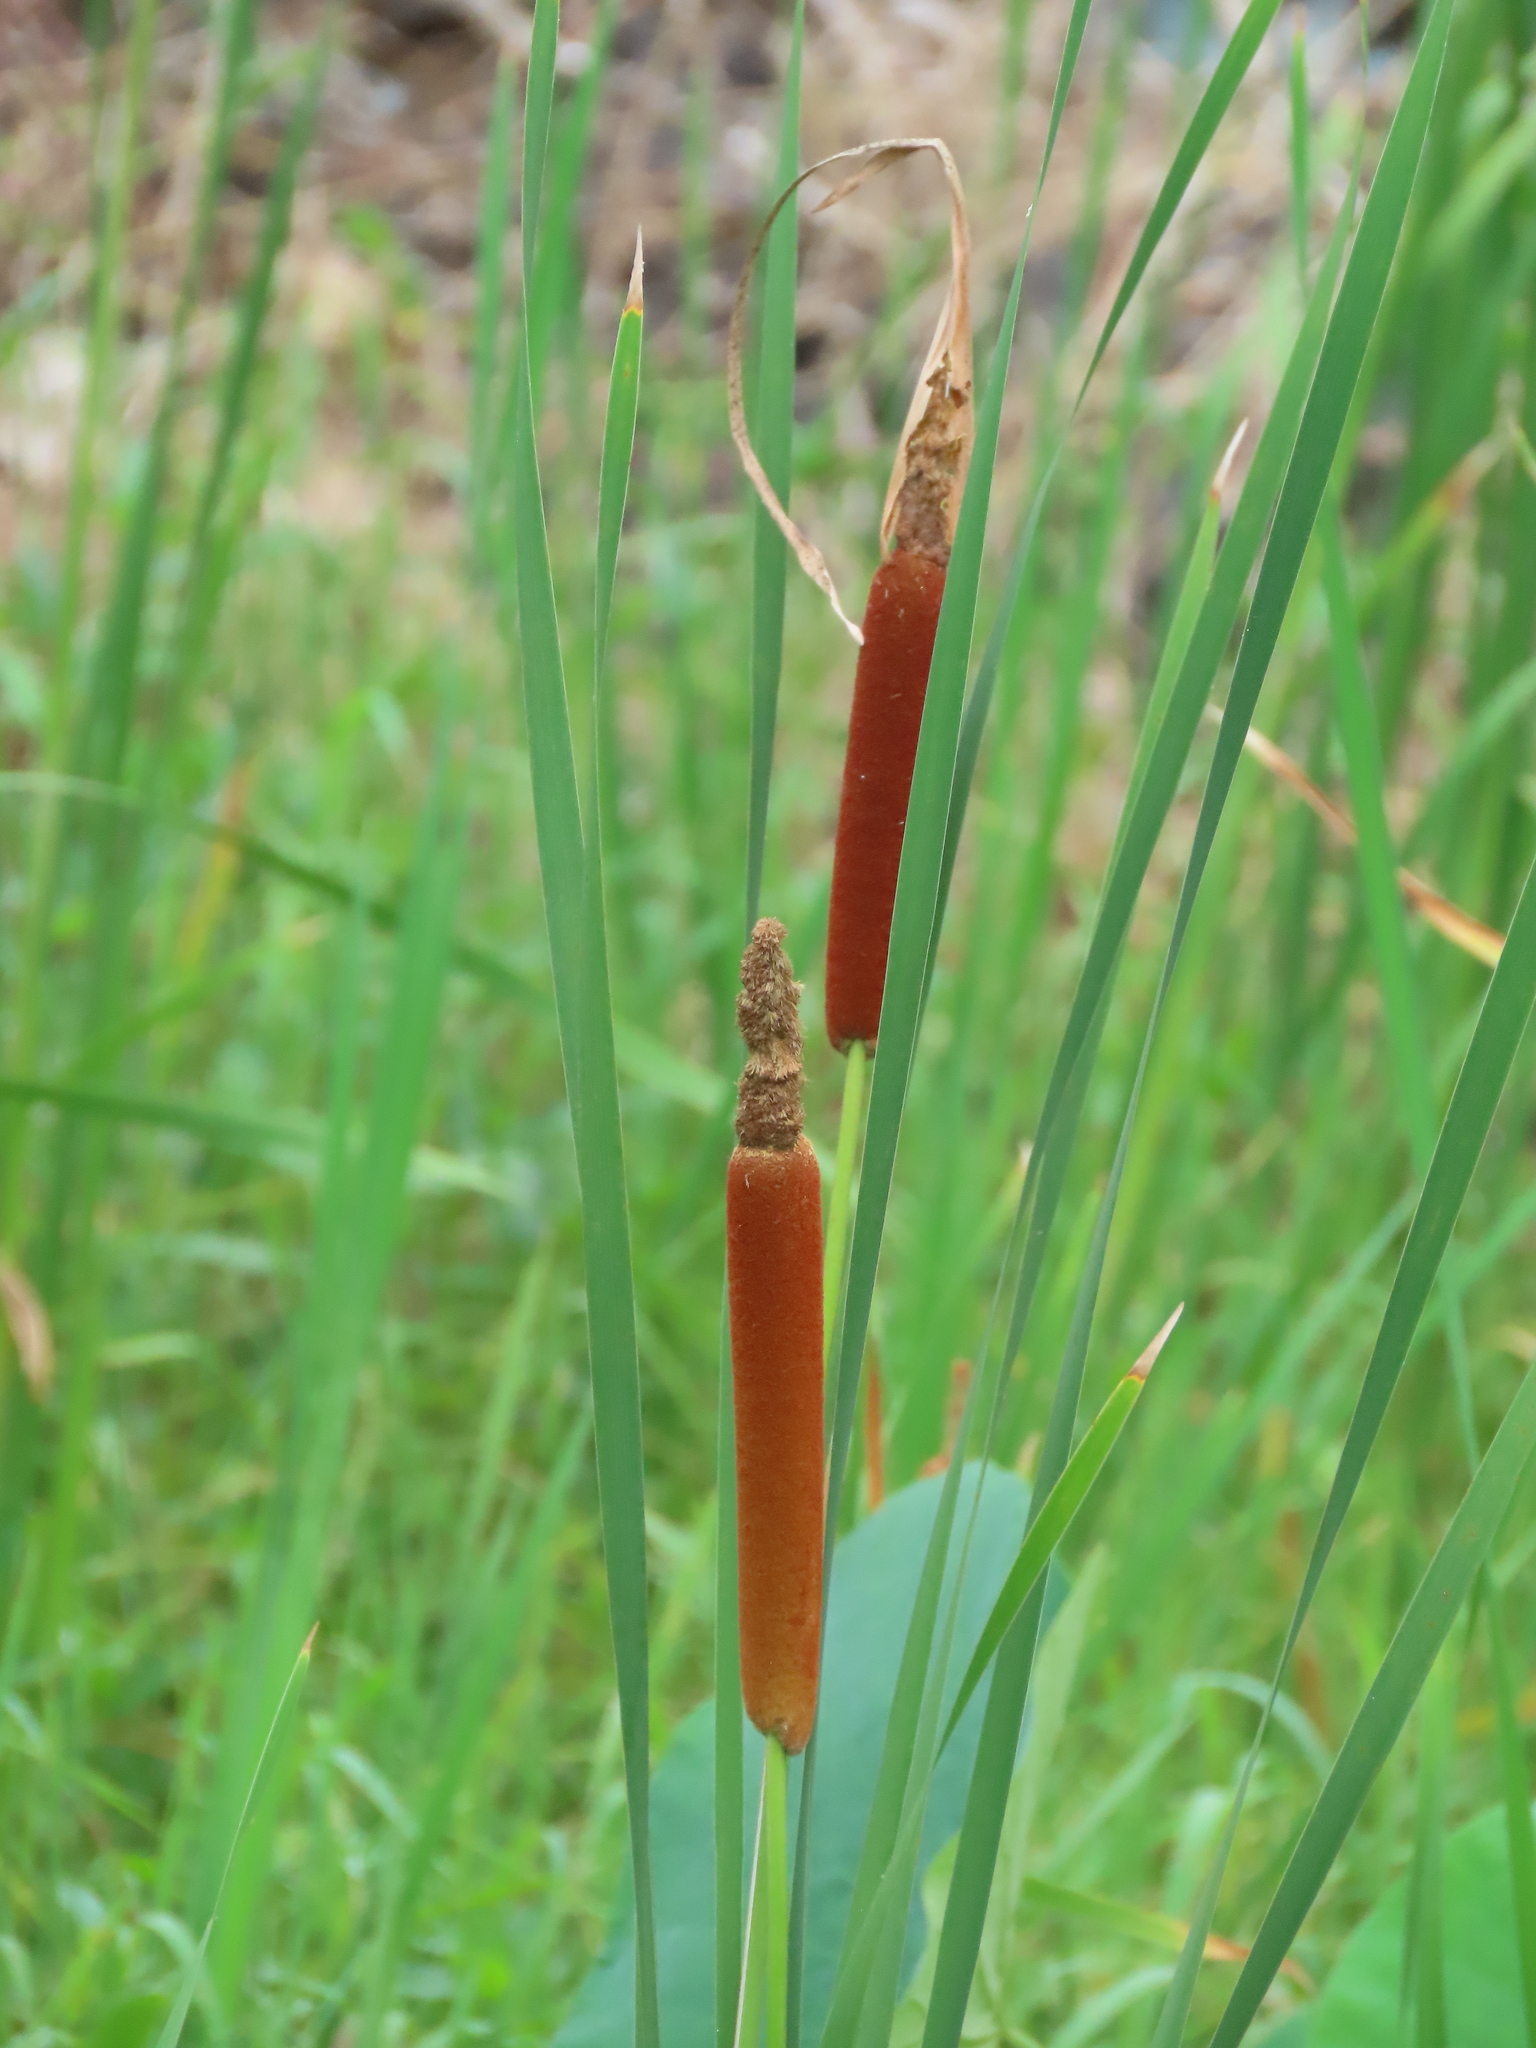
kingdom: Plantae
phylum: Tracheophyta
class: Liliopsida
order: Poales
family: Typhaceae
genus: Typha
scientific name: Typha orientalis
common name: Bullrush
